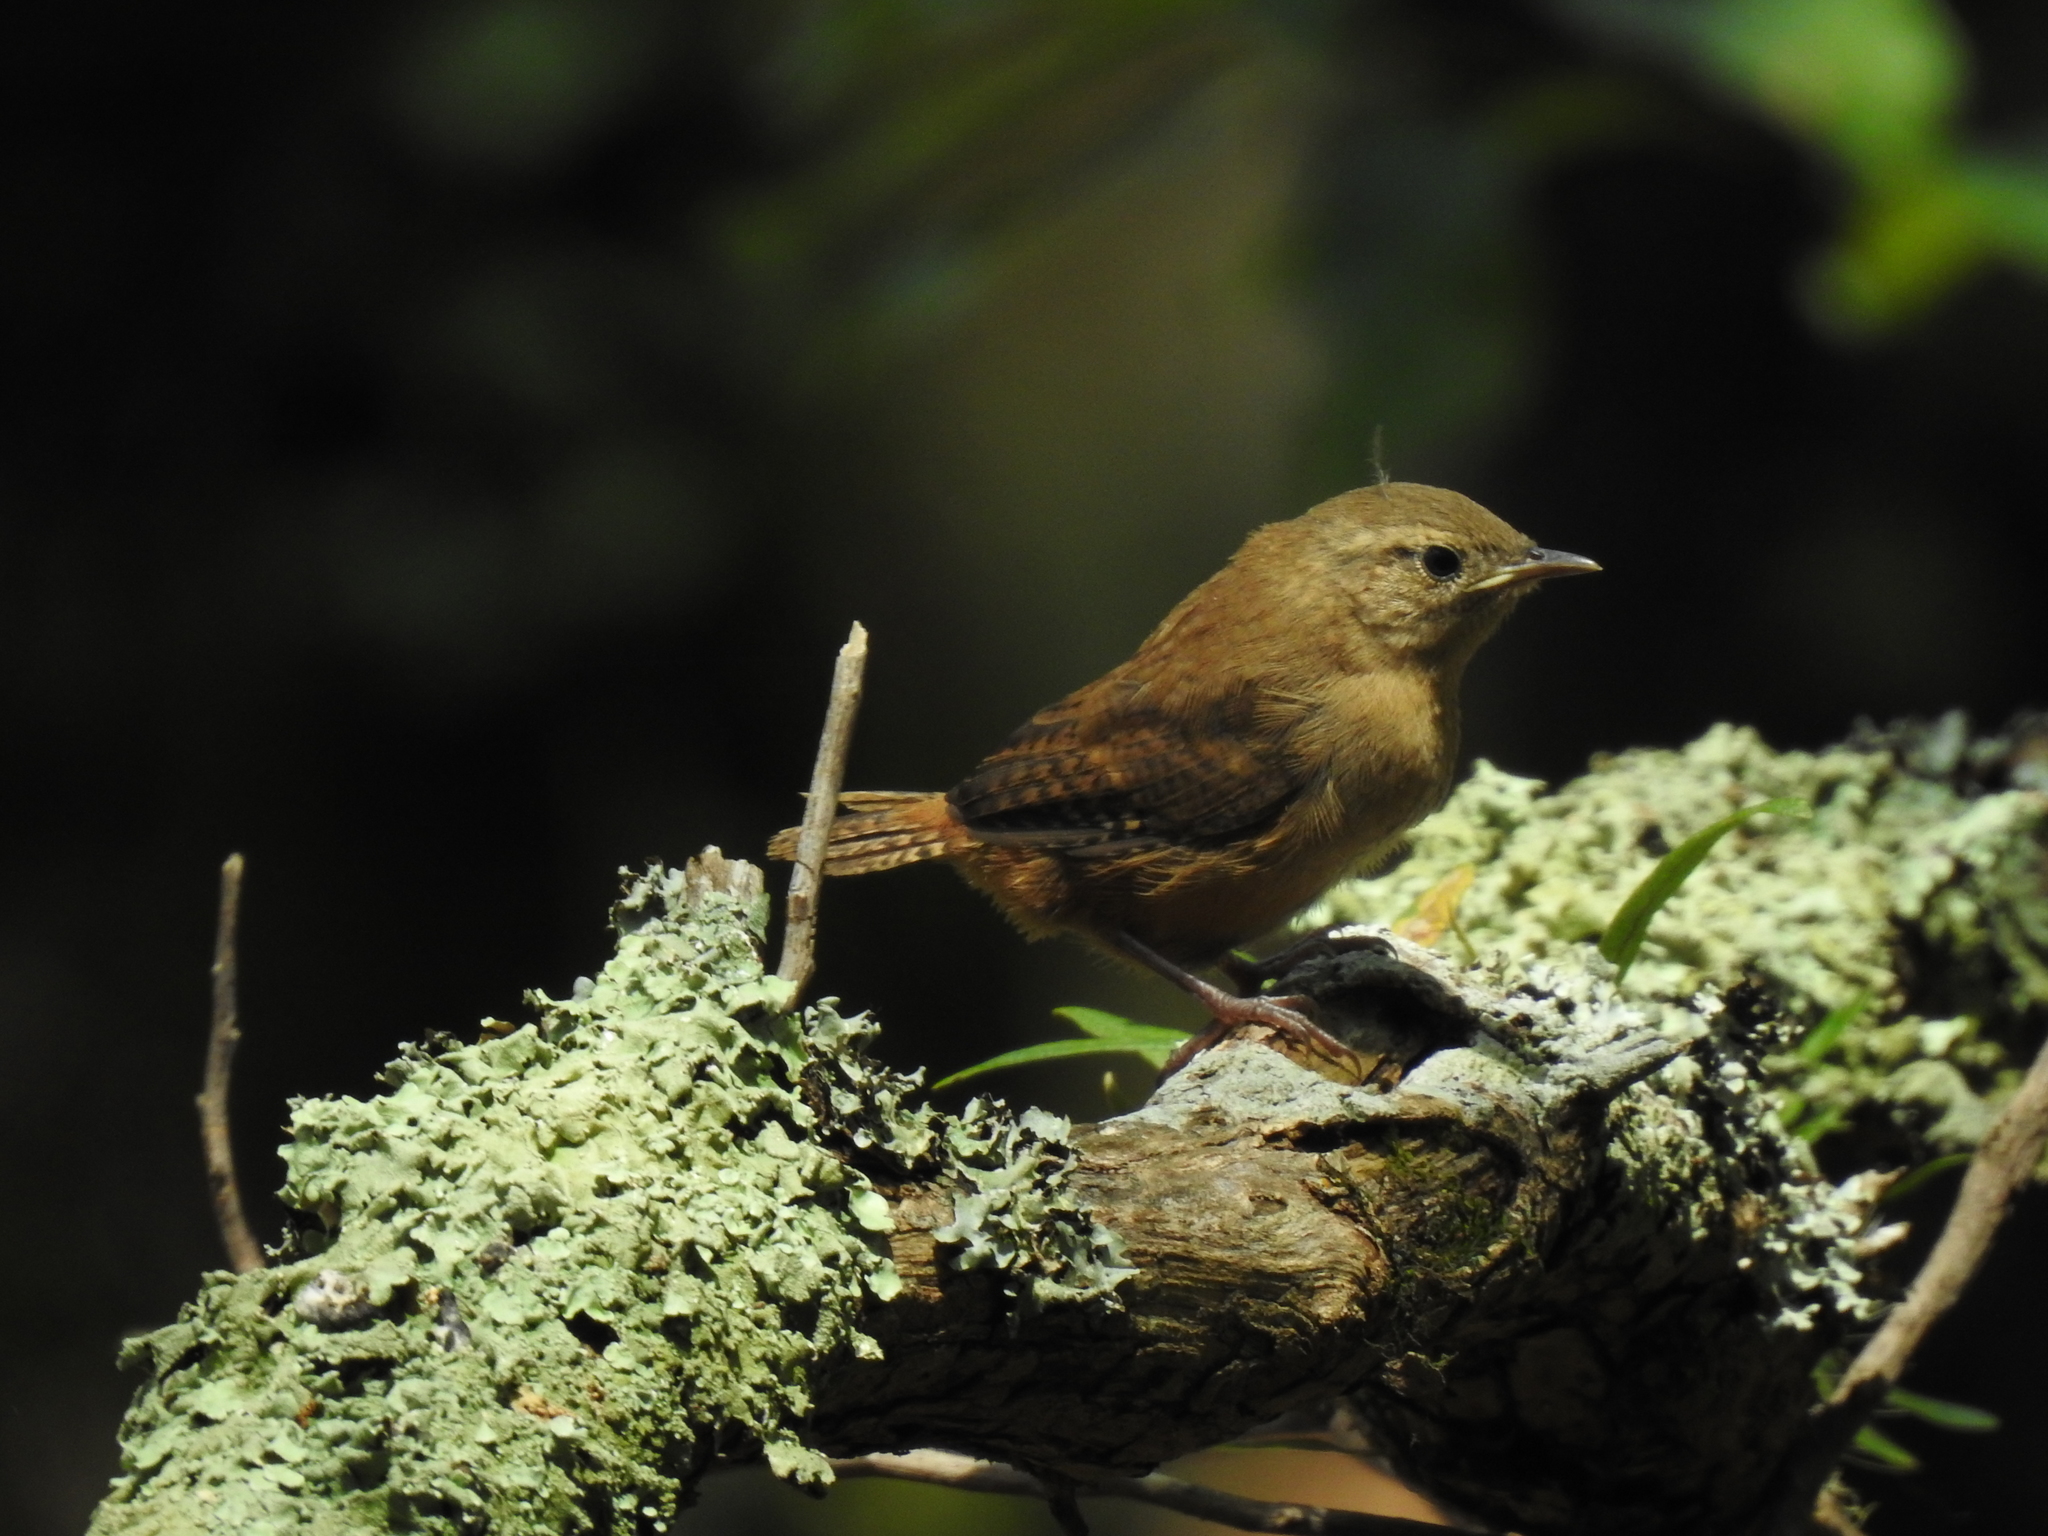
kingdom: Animalia
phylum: Chordata
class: Aves
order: Passeriformes
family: Troglodytidae
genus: Troglodytes
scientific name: Troglodytes aedon
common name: House wren
